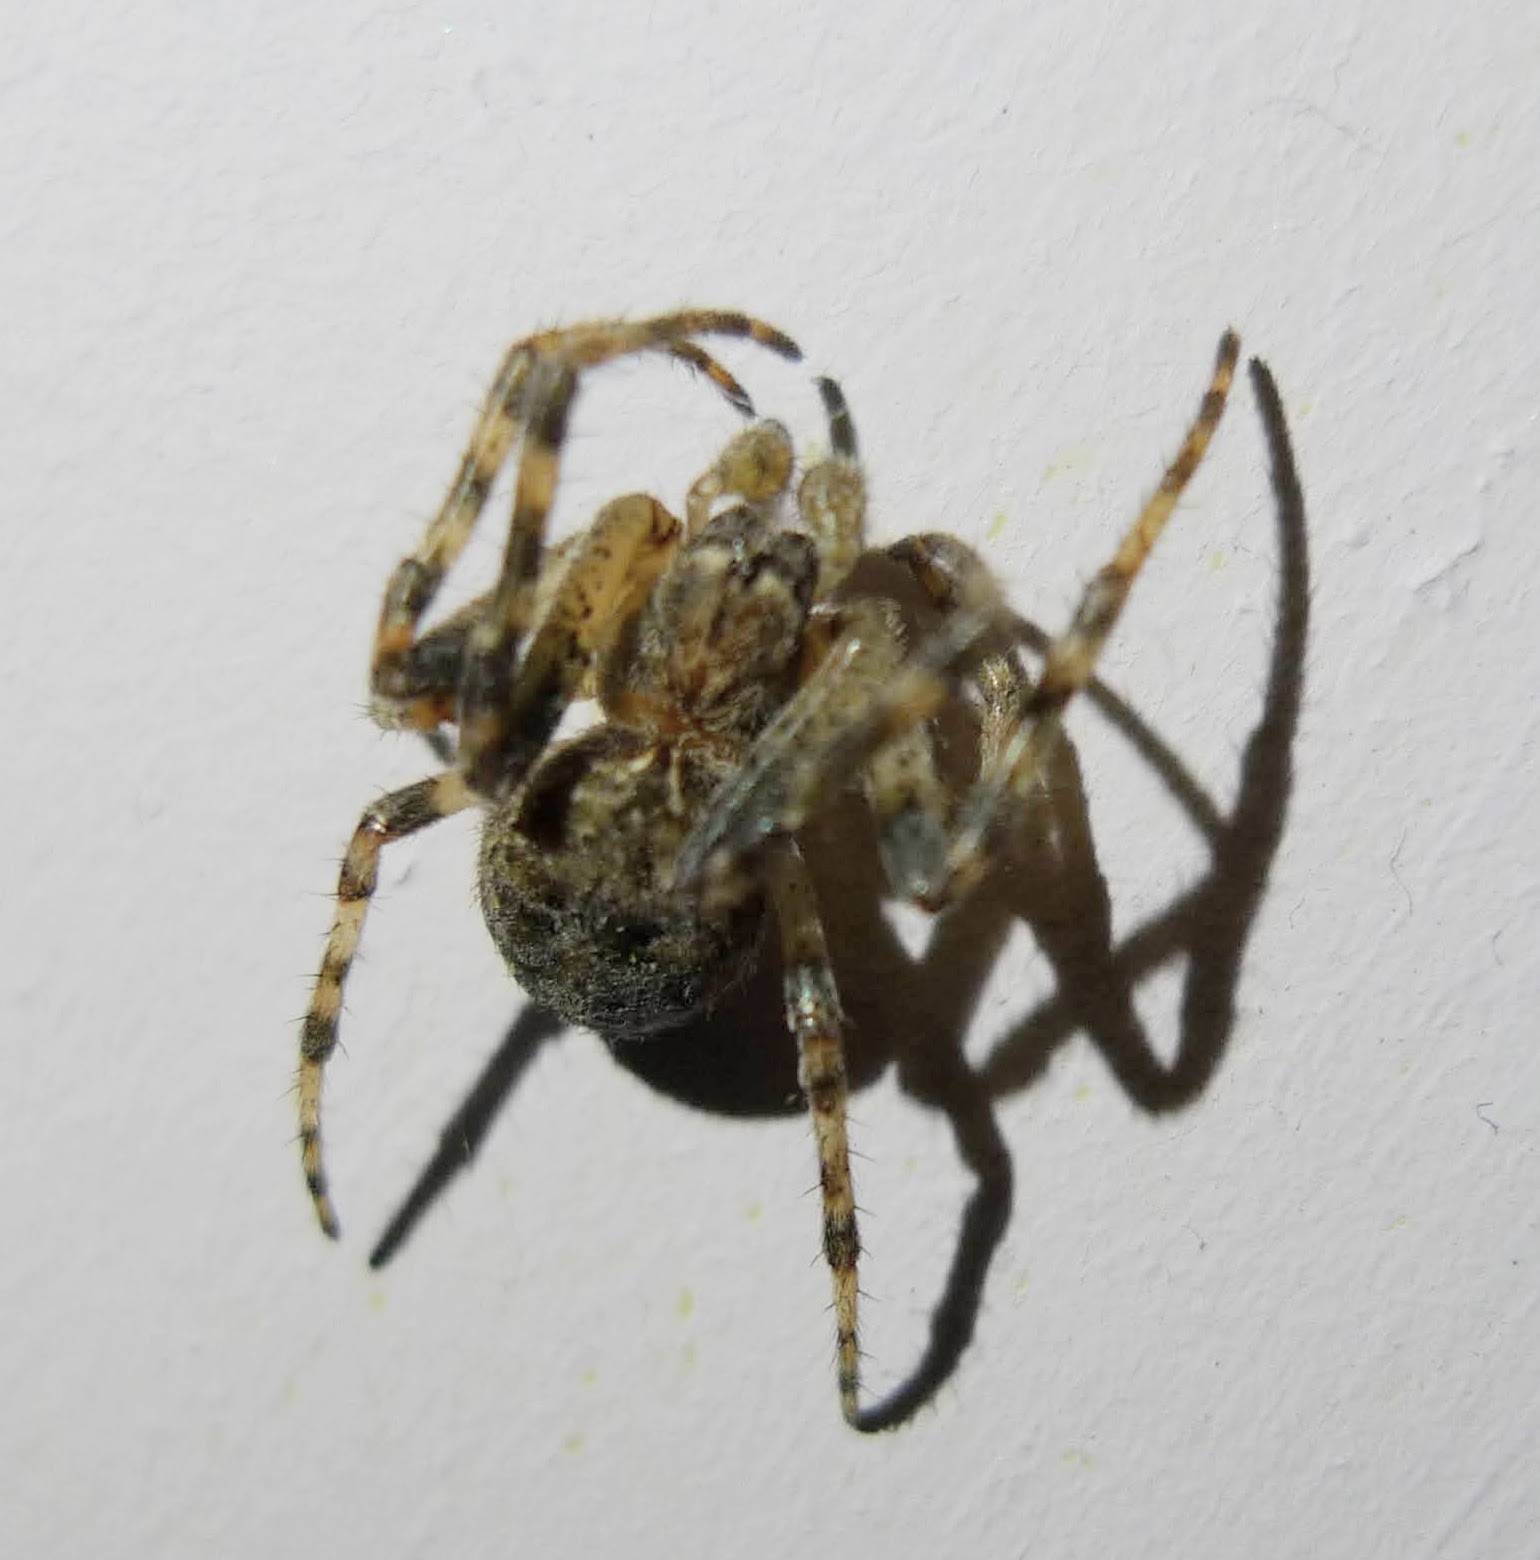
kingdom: Animalia
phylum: Arthropoda
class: Arachnida
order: Araneae
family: Araneidae
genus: Larinioides
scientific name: Larinioides ixobolus
